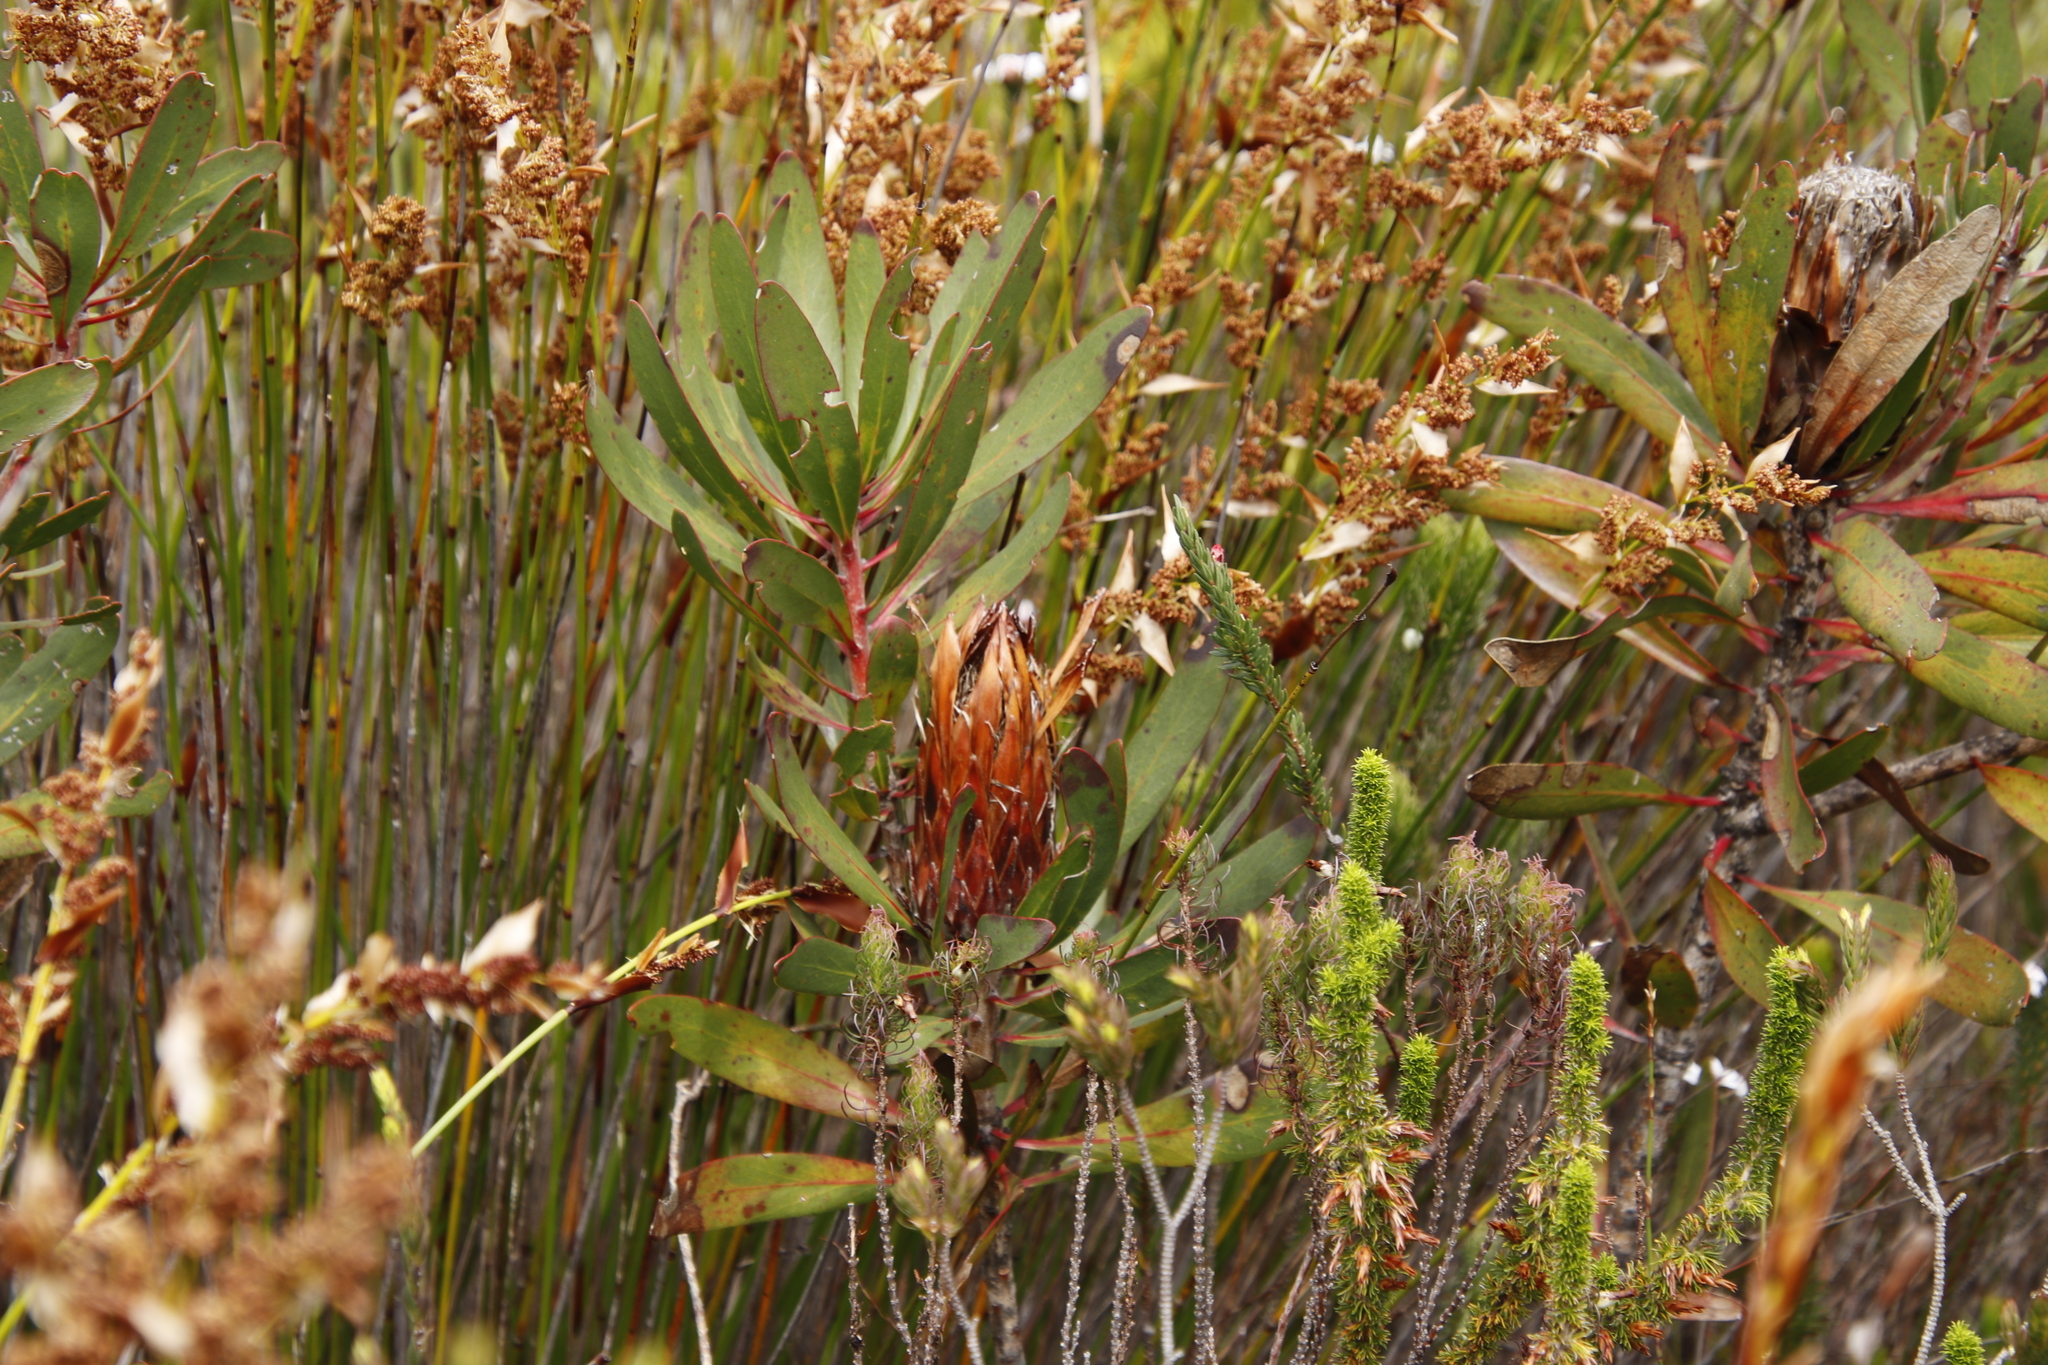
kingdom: Plantae
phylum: Tracheophyta
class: Magnoliopsida
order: Proteales
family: Proteaceae
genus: Protea
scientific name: Protea obtusifolia
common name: Bredasdorp sugarbush
